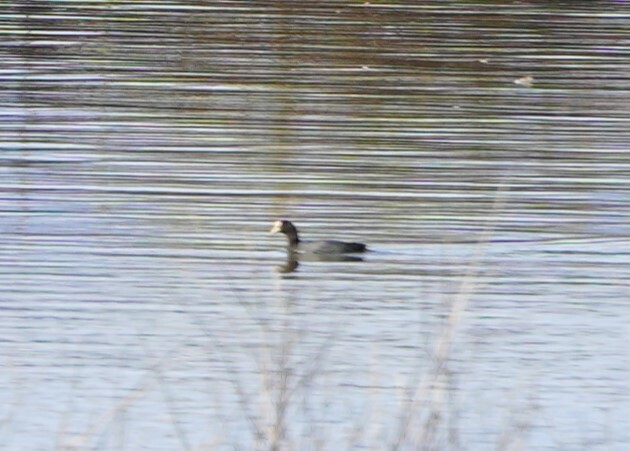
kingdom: Animalia
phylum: Chordata
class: Aves
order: Gruiformes
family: Rallidae
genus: Fulica
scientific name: Fulica atra
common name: Eurasian coot
